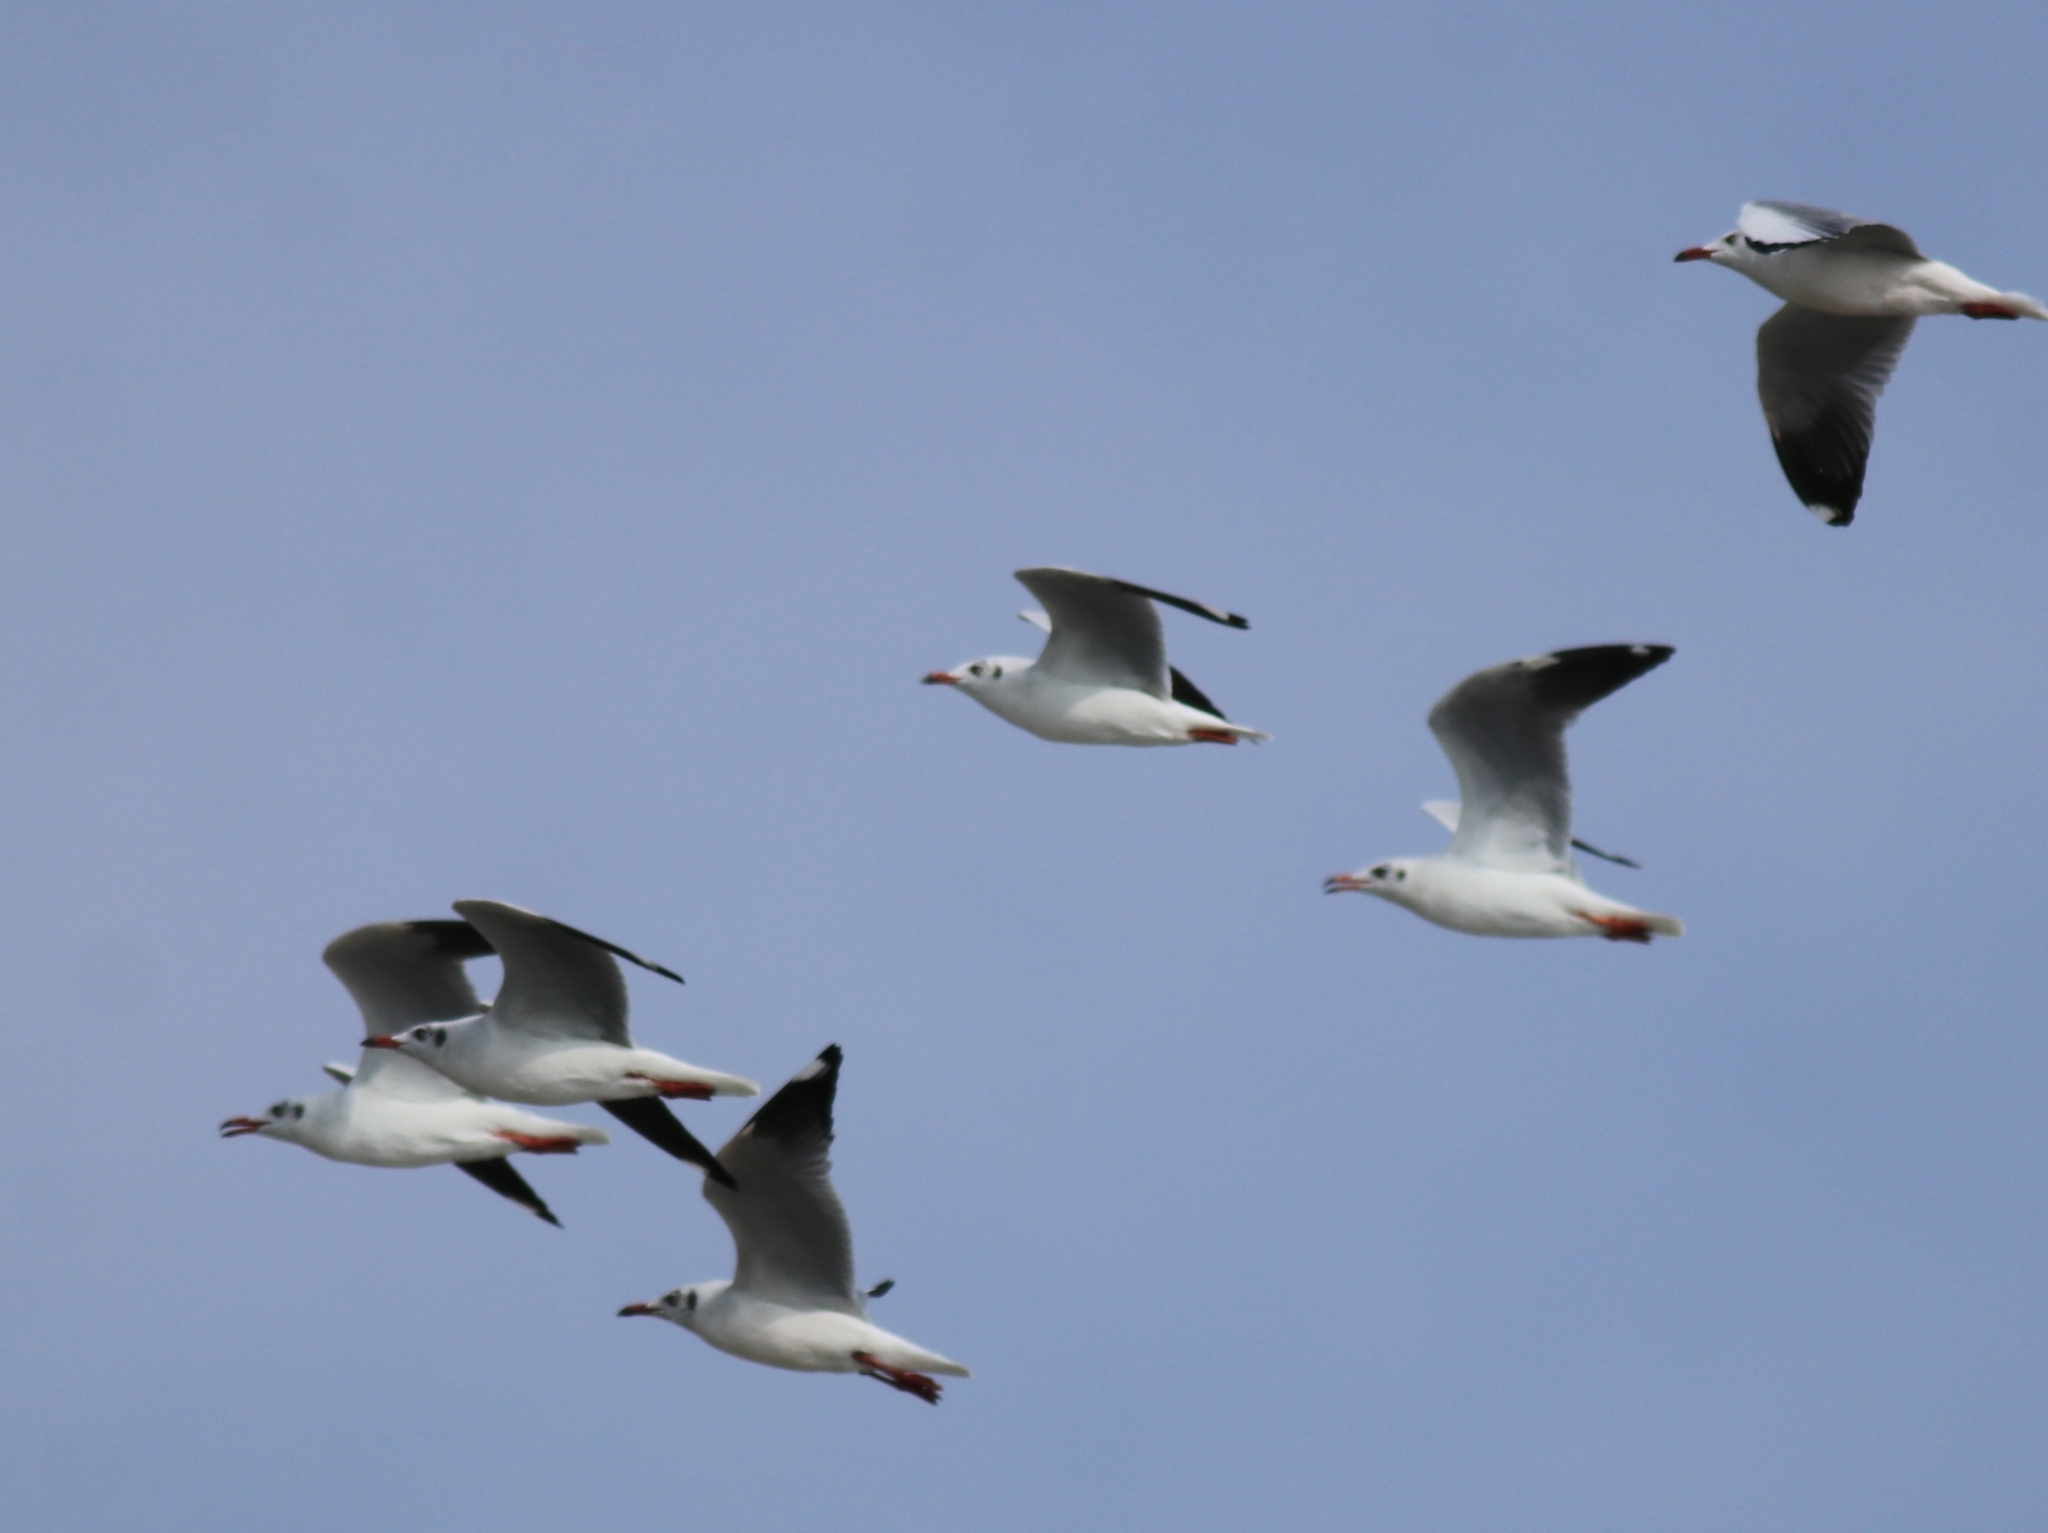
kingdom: Animalia
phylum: Chordata
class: Aves
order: Charadriiformes
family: Laridae
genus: Chroicocephalus
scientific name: Chroicocephalus brunnicephalus
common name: Brown-headed gull
